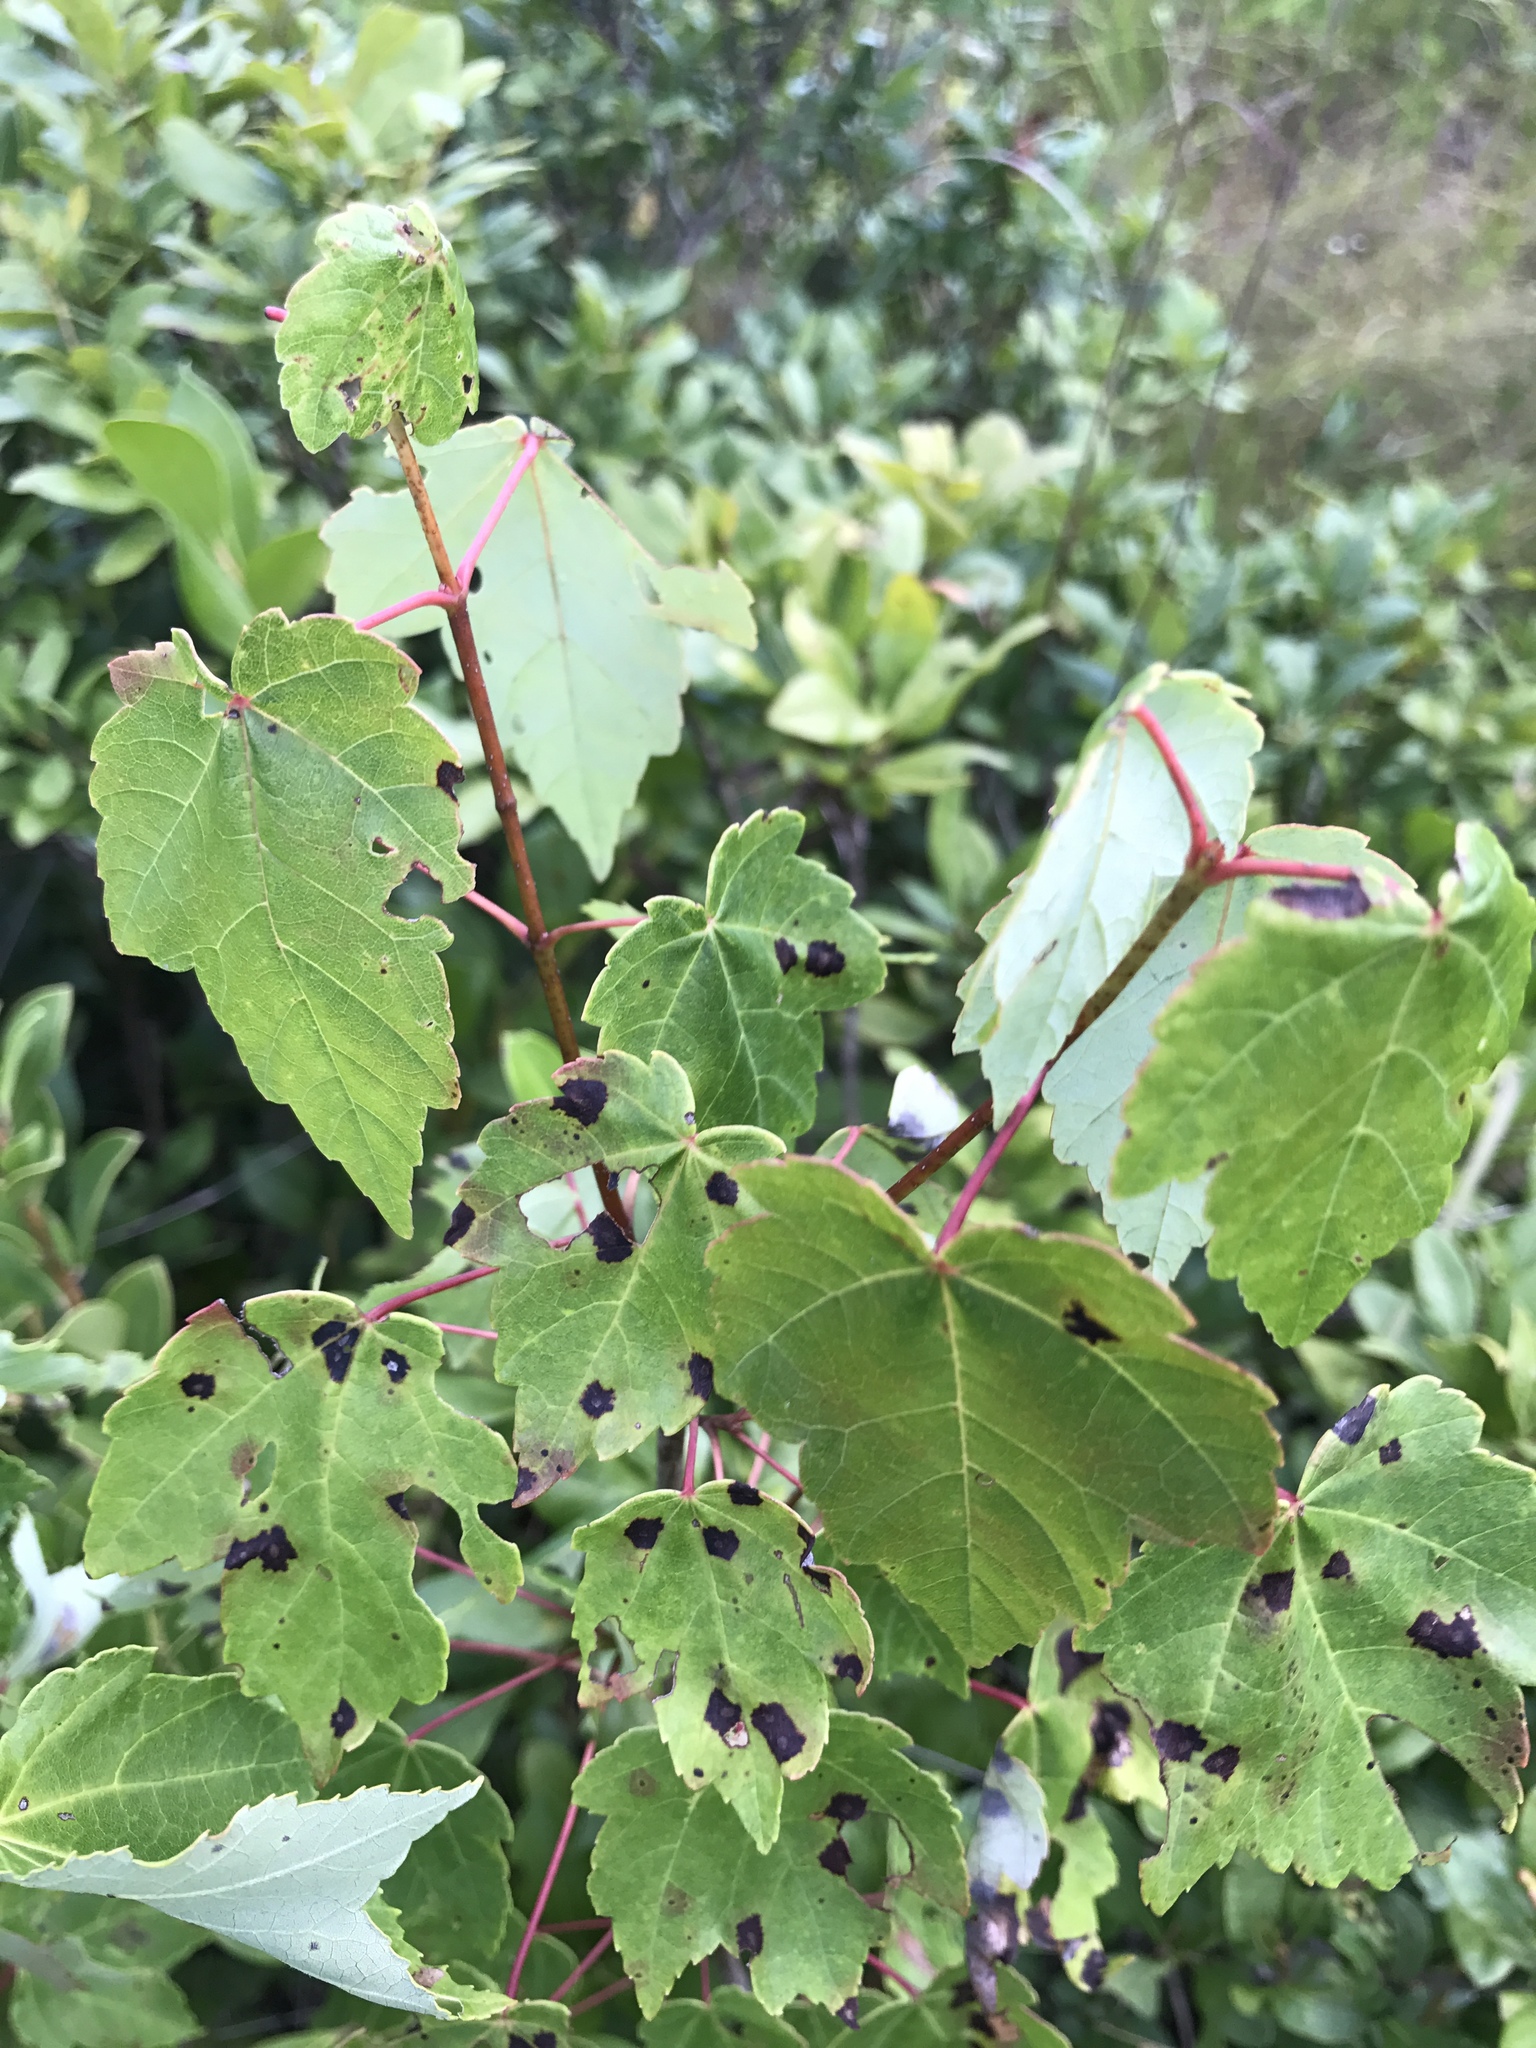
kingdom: Plantae
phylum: Tracheophyta
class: Magnoliopsida
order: Sapindales
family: Sapindaceae
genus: Acer
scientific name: Acer rubrum
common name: Red maple
